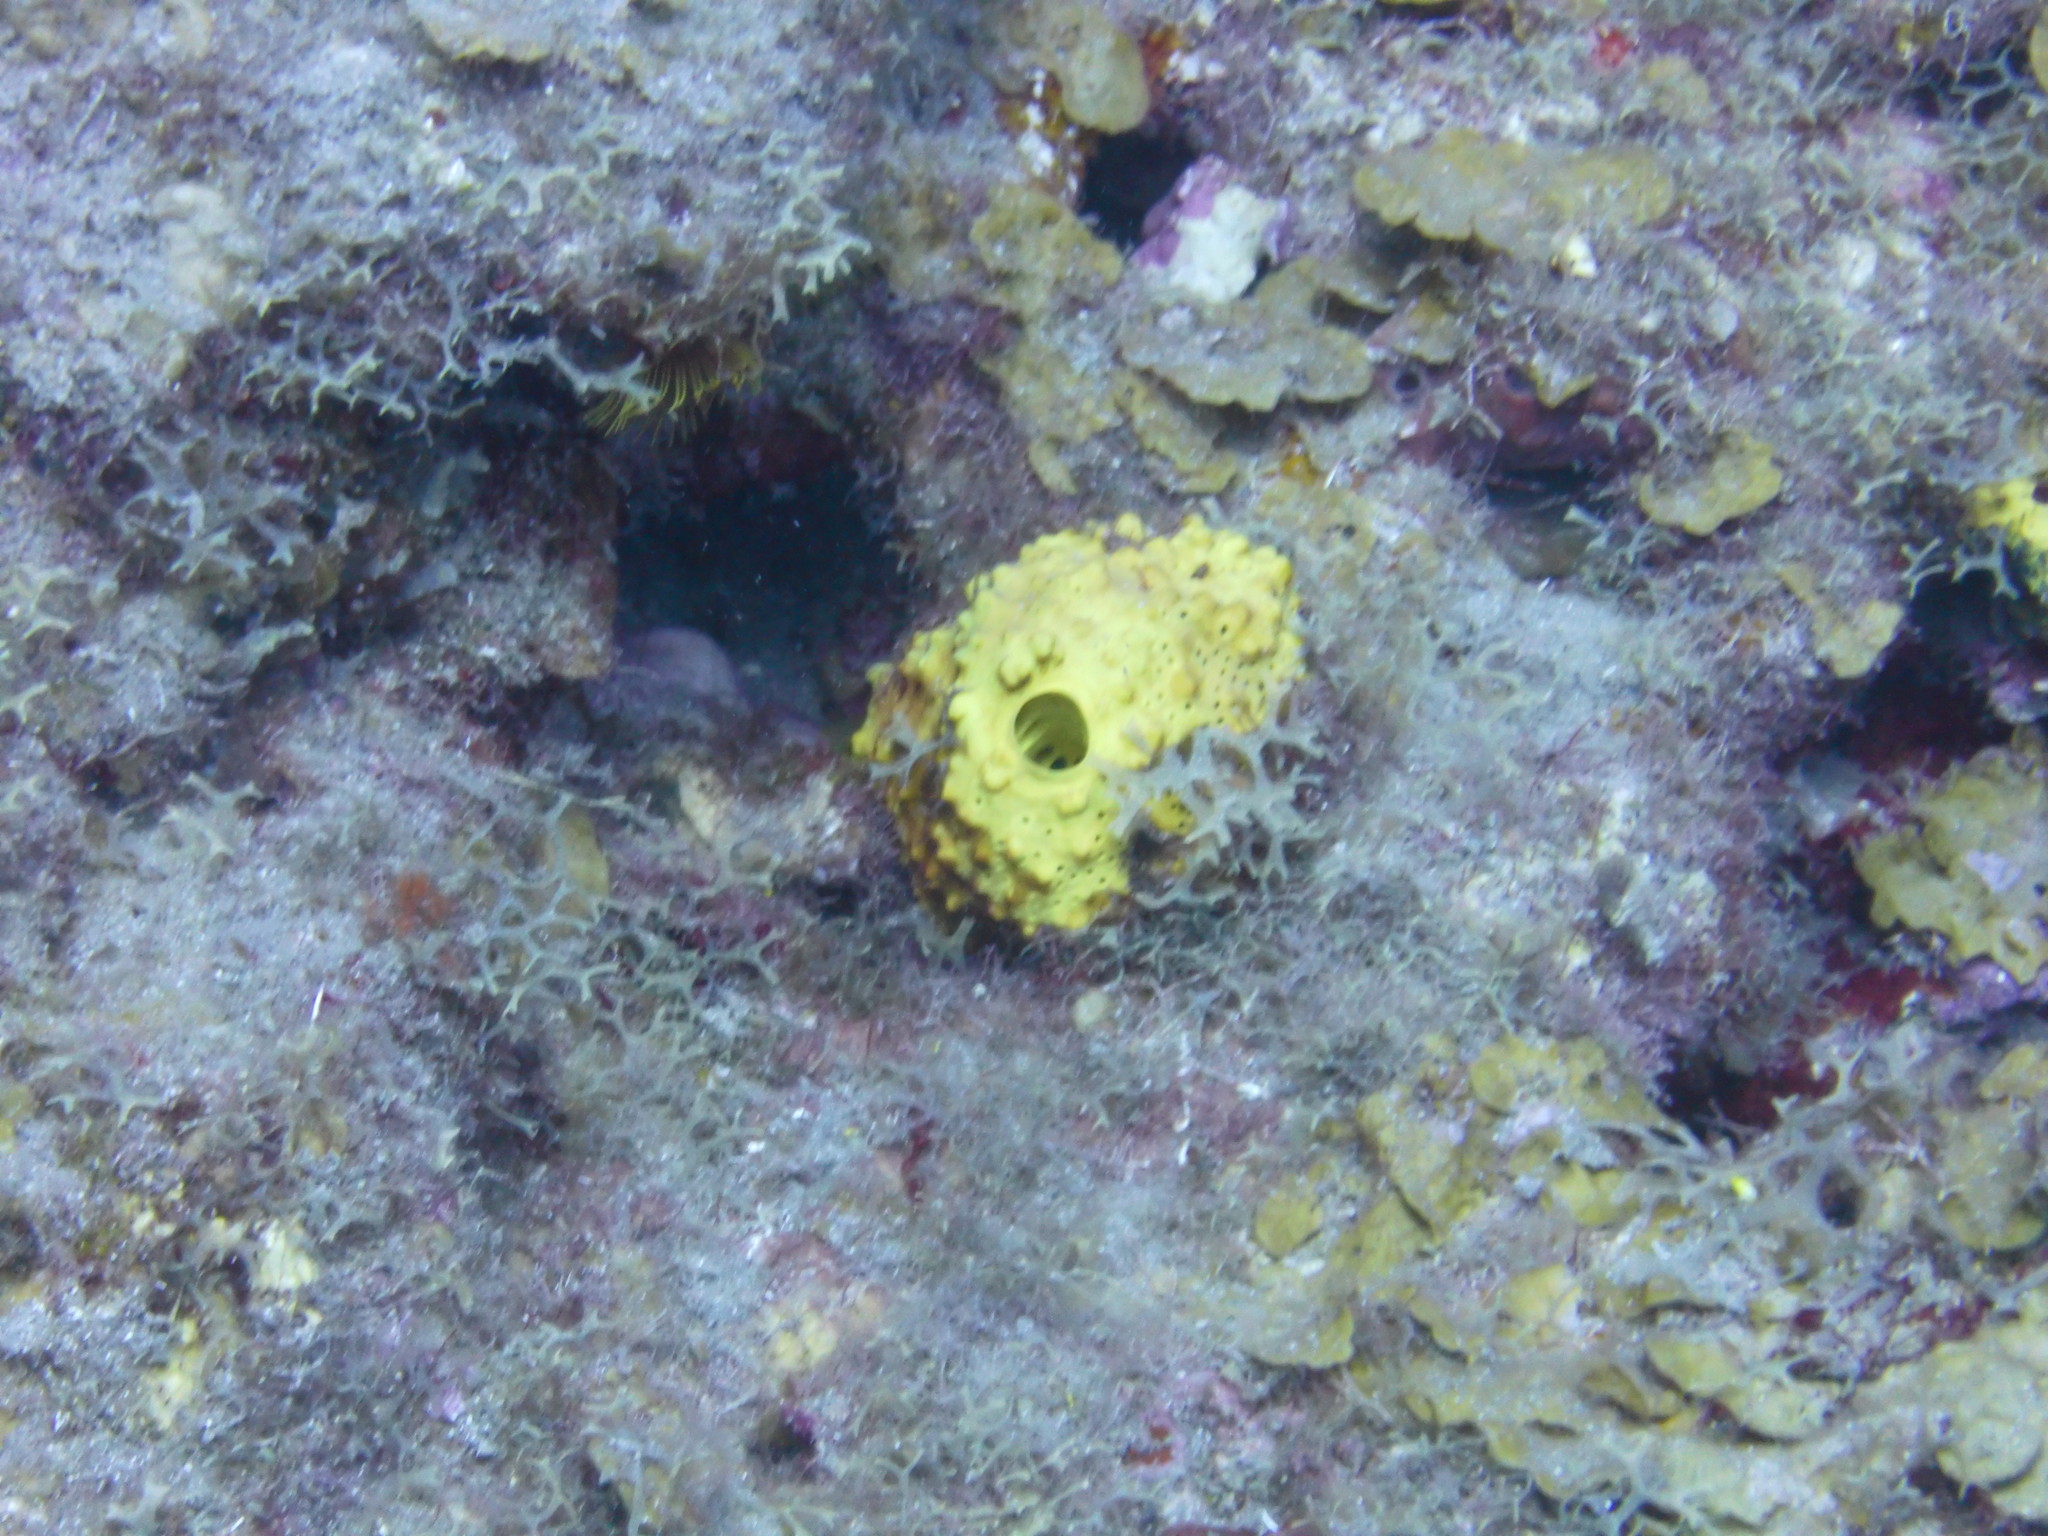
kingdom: Animalia
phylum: Porifera
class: Demospongiae
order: Verongiida
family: Aplysinidae
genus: Aiolochroia
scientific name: Aiolochroia crassa
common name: Branching tube sponge
